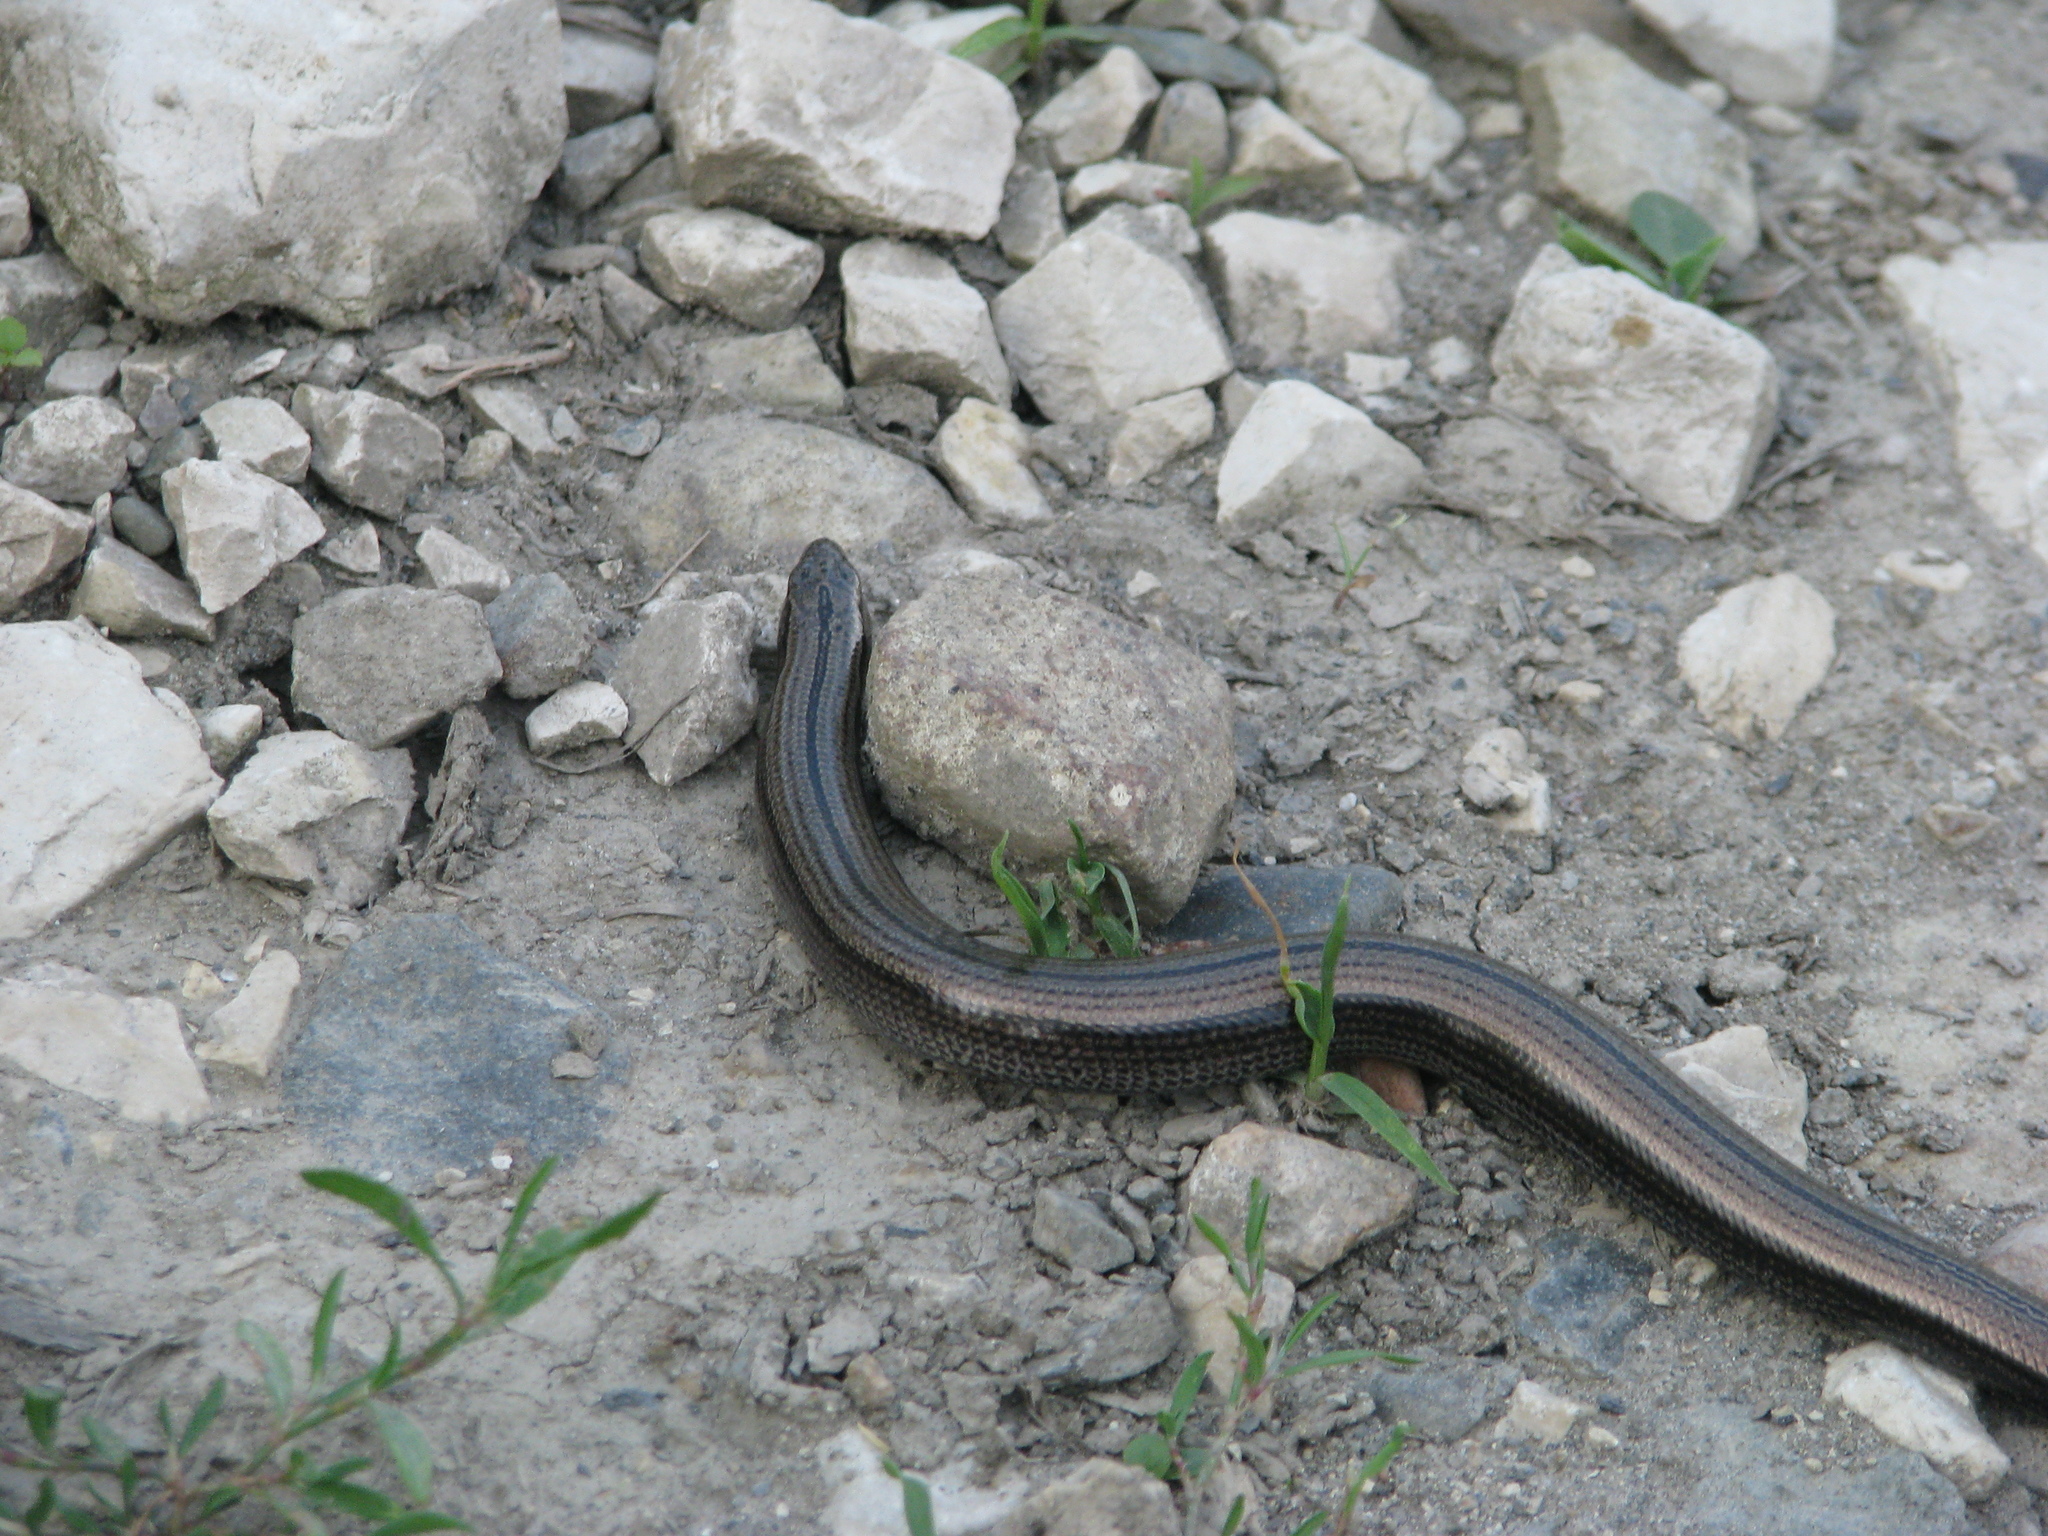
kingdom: Animalia
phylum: Chordata
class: Squamata
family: Anguidae
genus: Anguis
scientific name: Anguis colchica
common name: Slow worm
